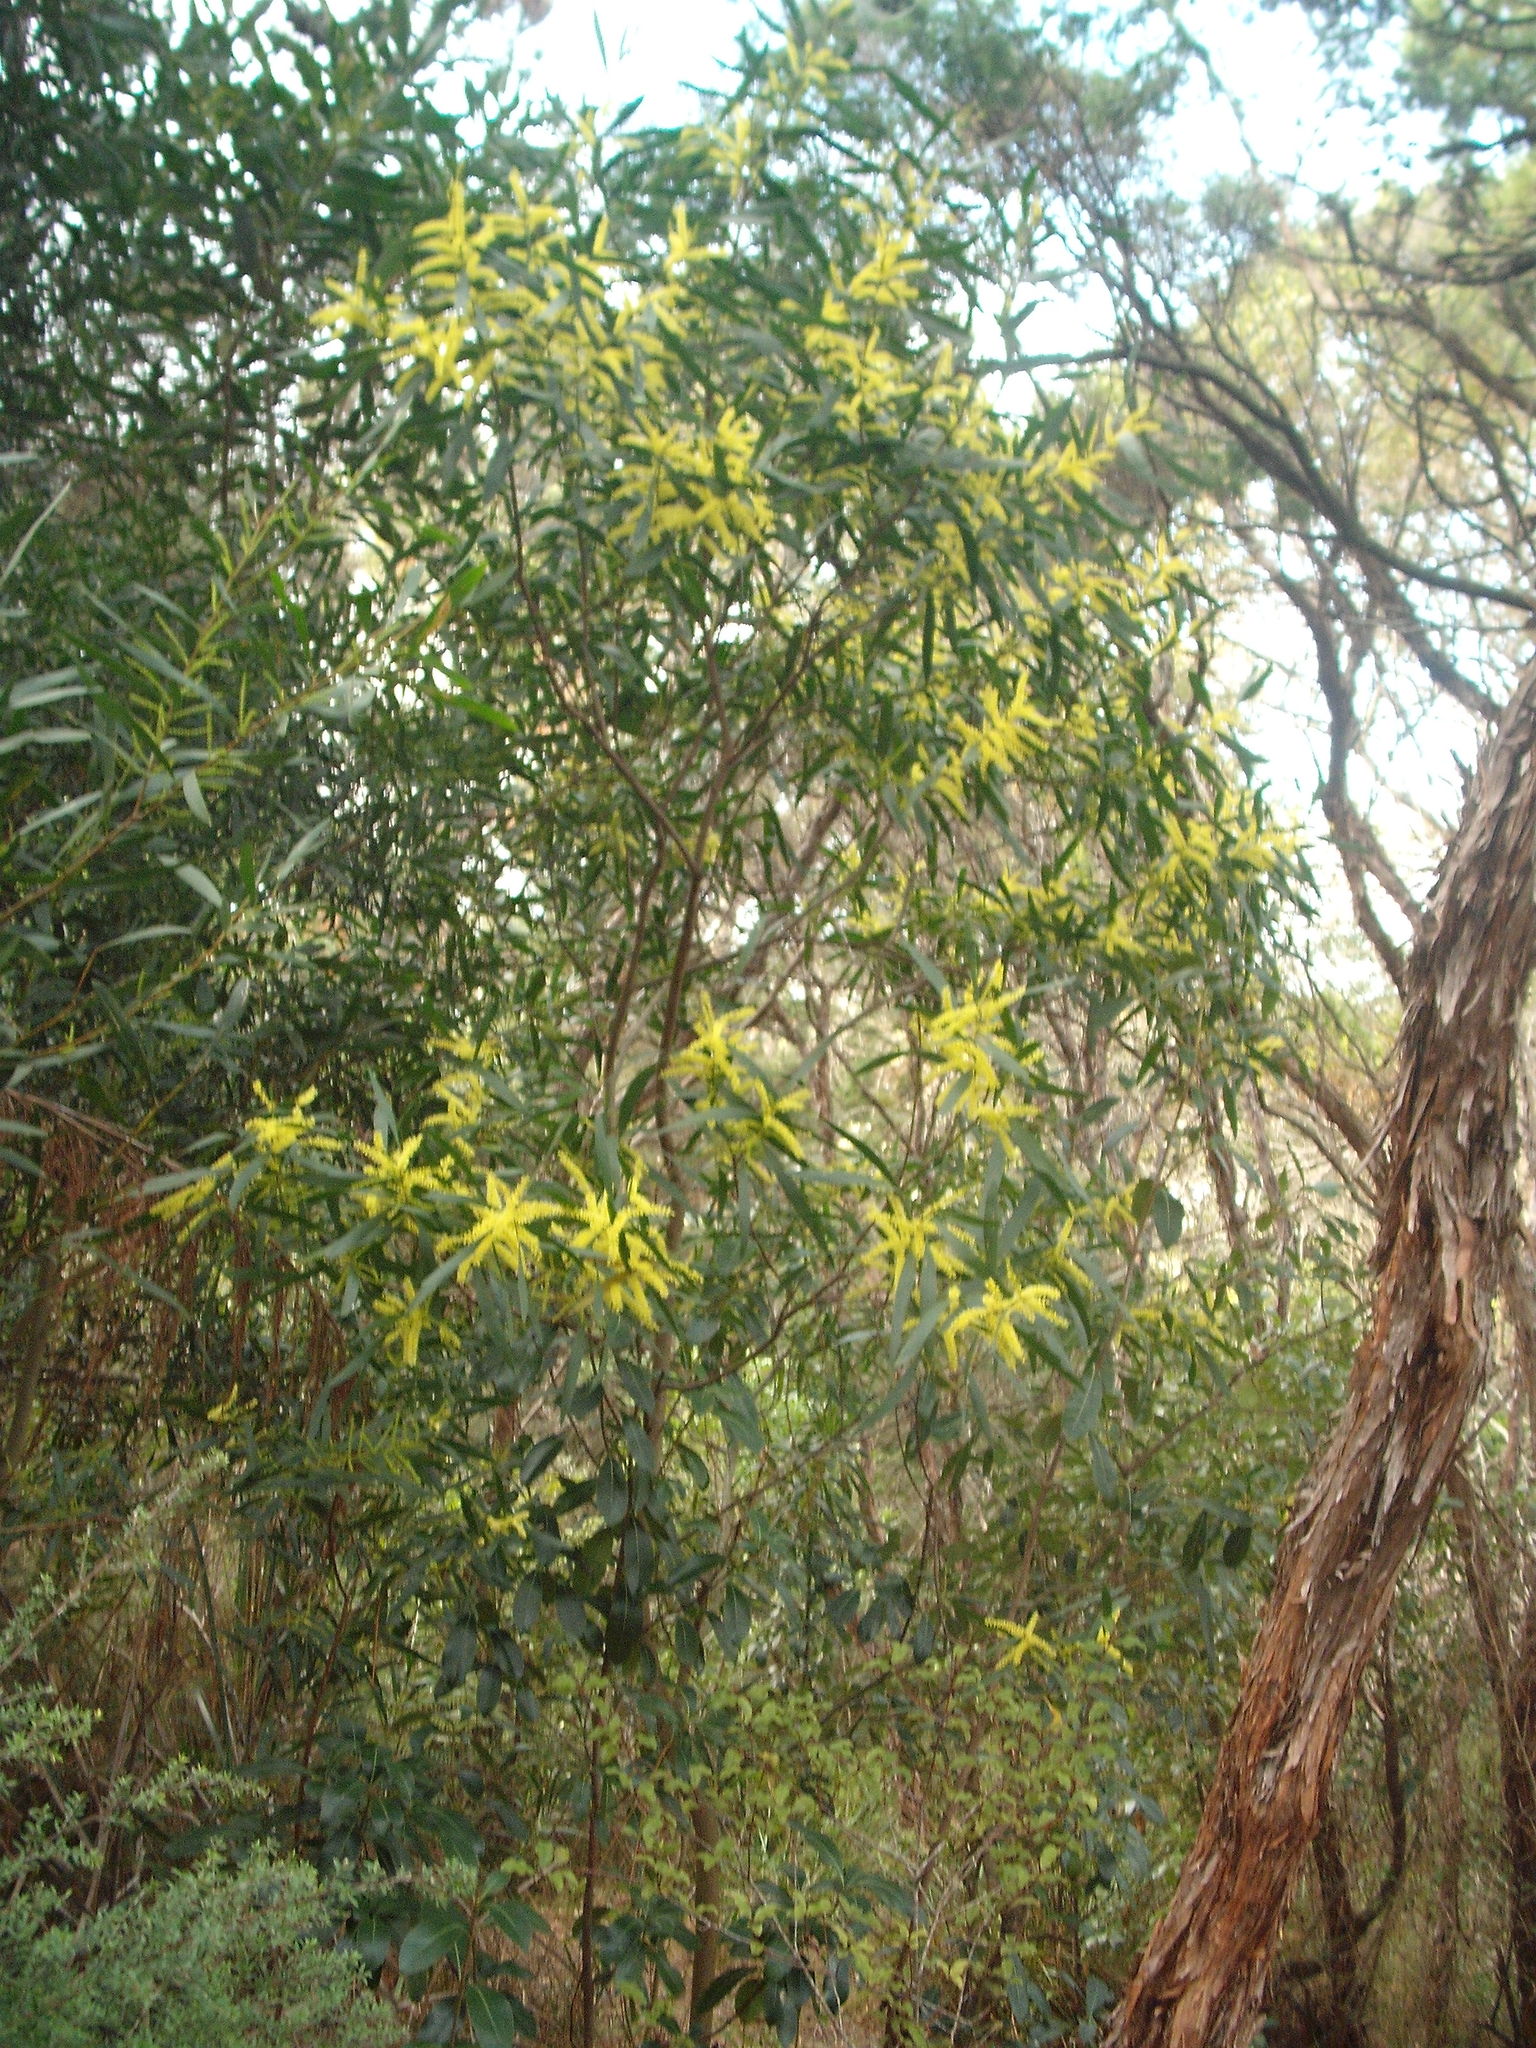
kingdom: Plantae
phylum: Tracheophyta
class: Magnoliopsida
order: Fabales
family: Fabaceae
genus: Acacia
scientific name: Acacia longifolia
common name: Sydney golden wattle
